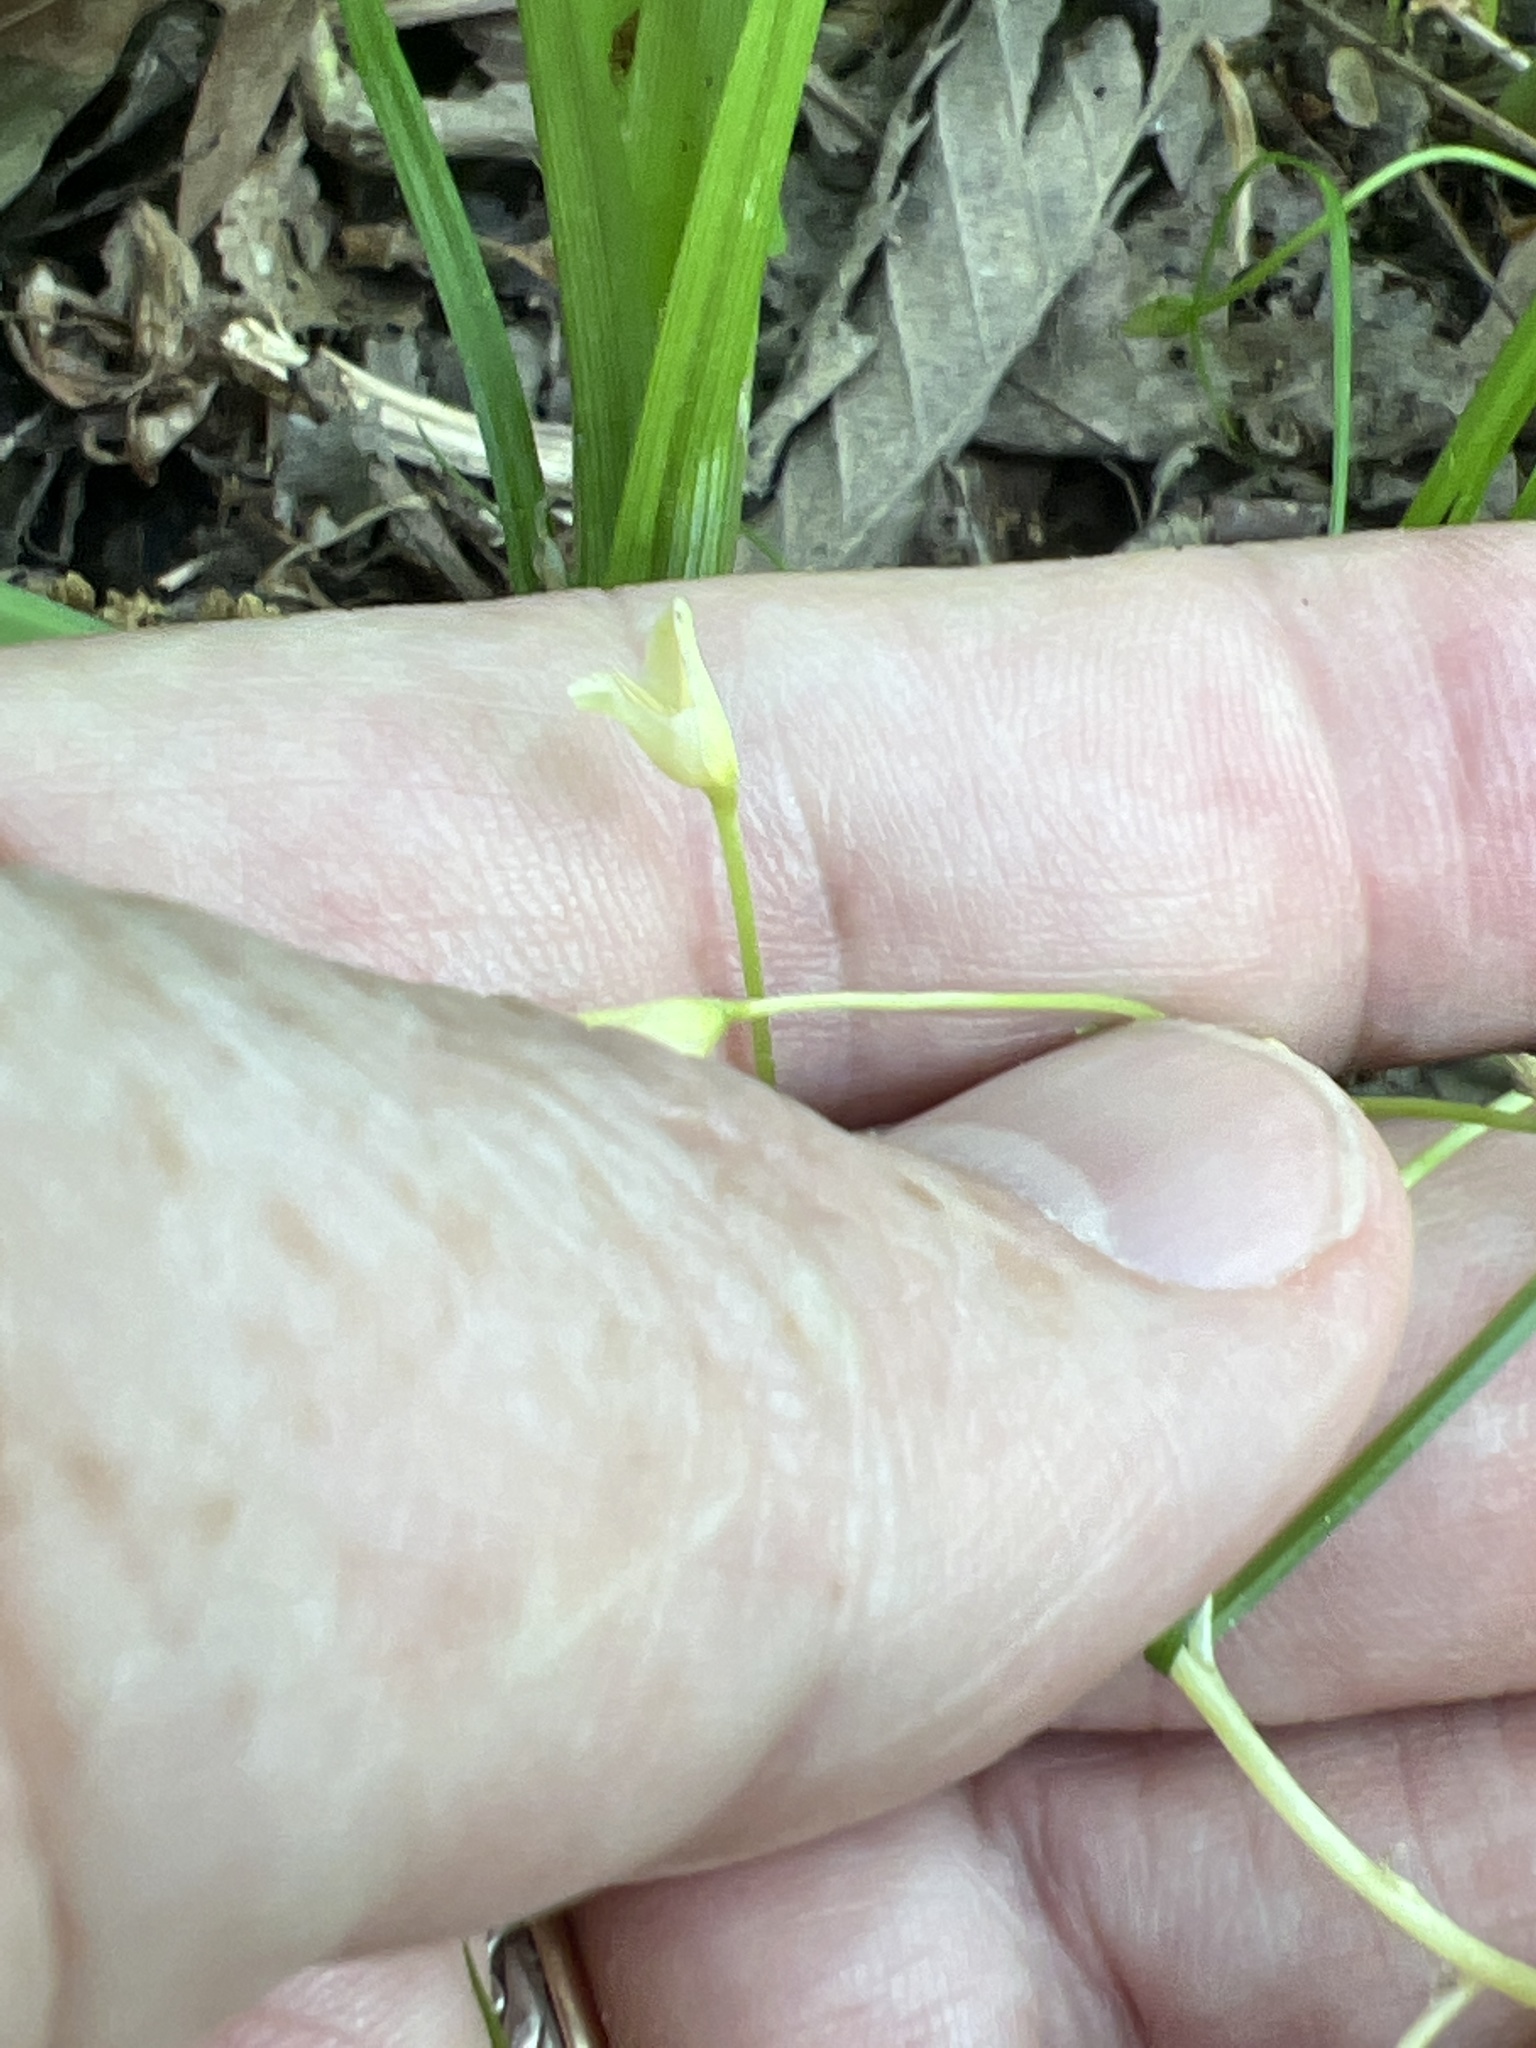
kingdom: Plantae
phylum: Tracheophyta
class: Magnoliopsida
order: Caryophyllales
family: Montiaceae
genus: Claytonia
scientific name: Claytonia virginica
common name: Virginia springbeauty
